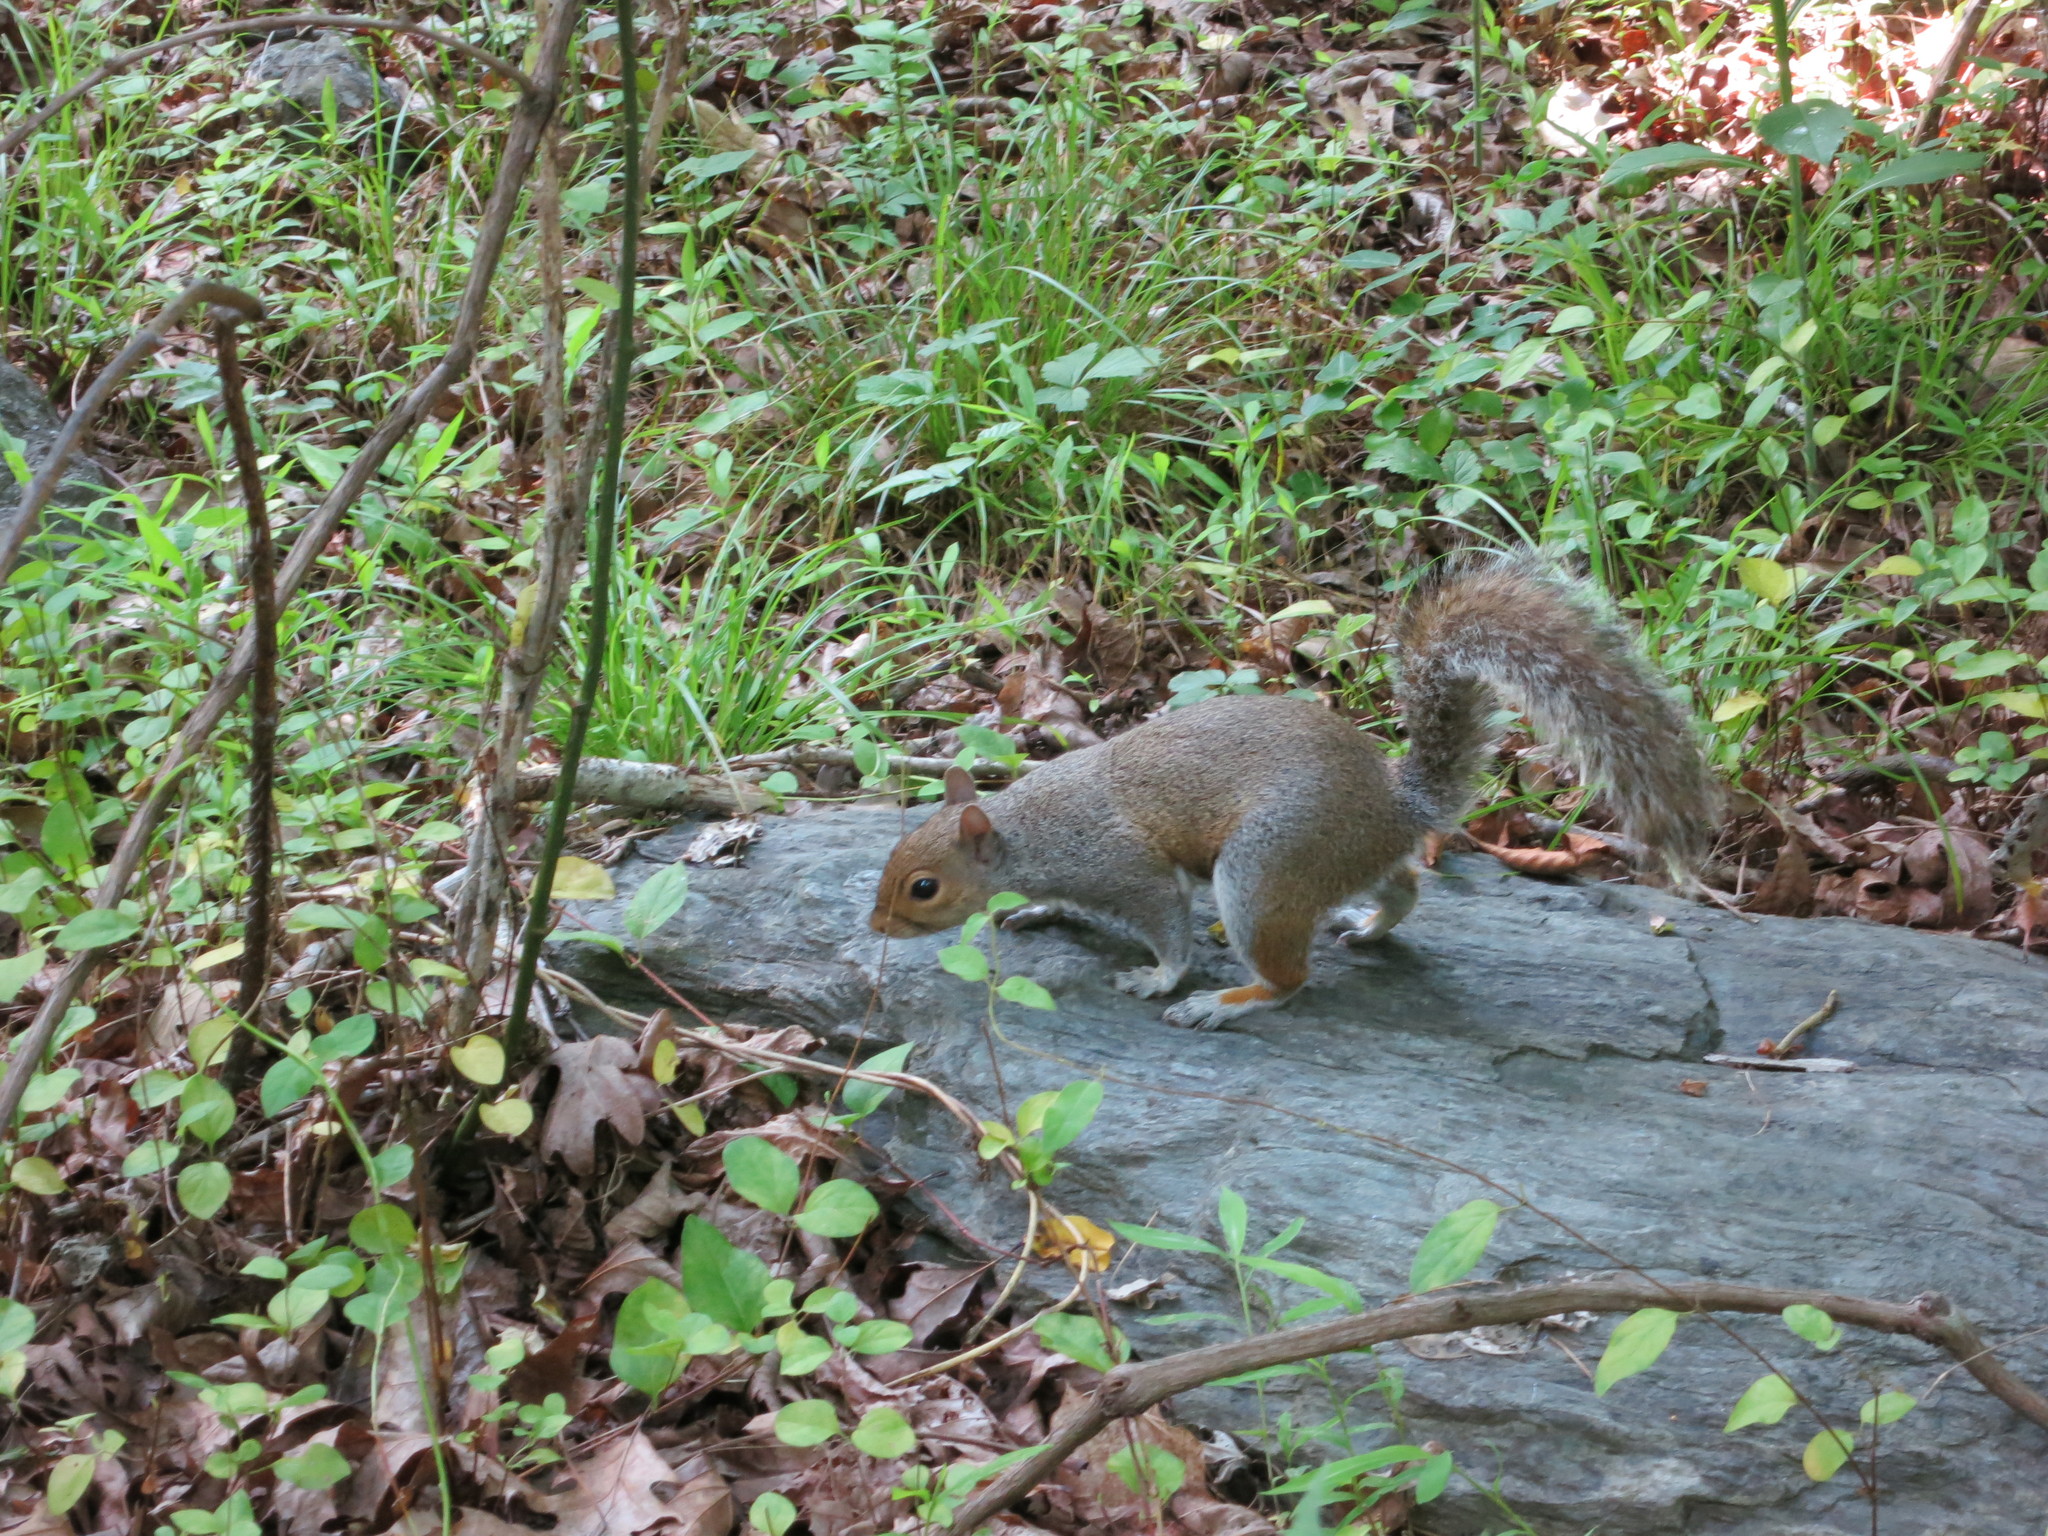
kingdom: Animalia
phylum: Chordata
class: Mammalia
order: Rodentia
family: Sciuridae
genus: Sciurus
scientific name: Sciurus carolinensis
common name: Eastern gray squirrel
